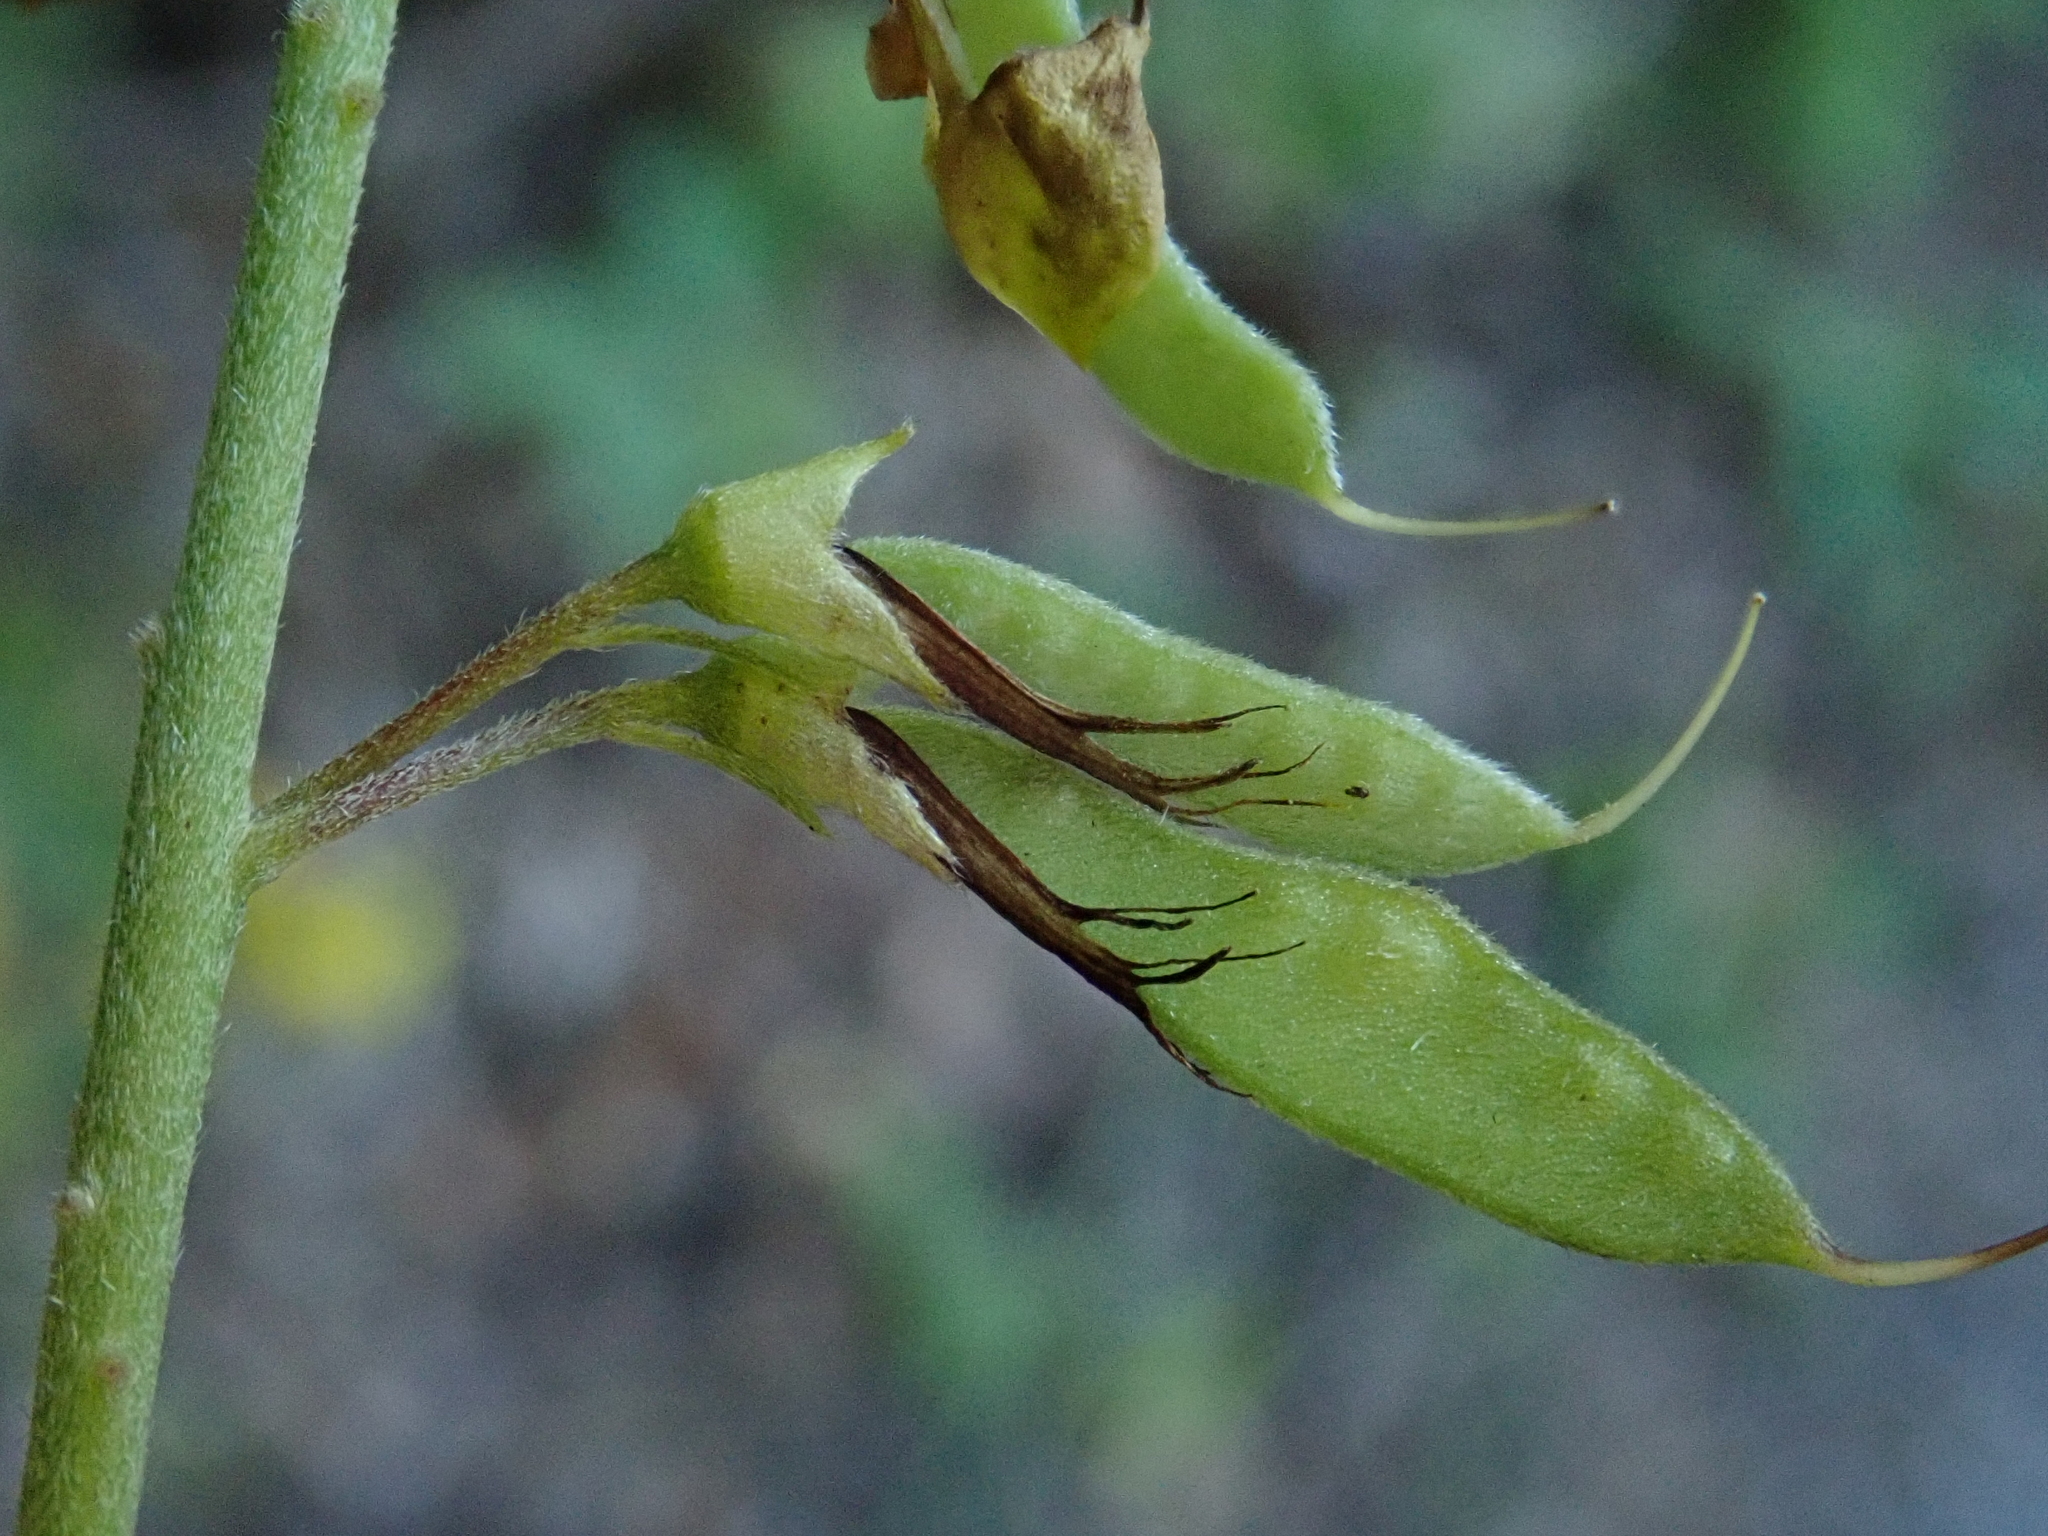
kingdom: Plantae
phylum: Tracheophyta
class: Magnoliopsida
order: Fabales
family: Fabaceae
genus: Cytisus
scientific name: Cytisus nigricans
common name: Black broom
